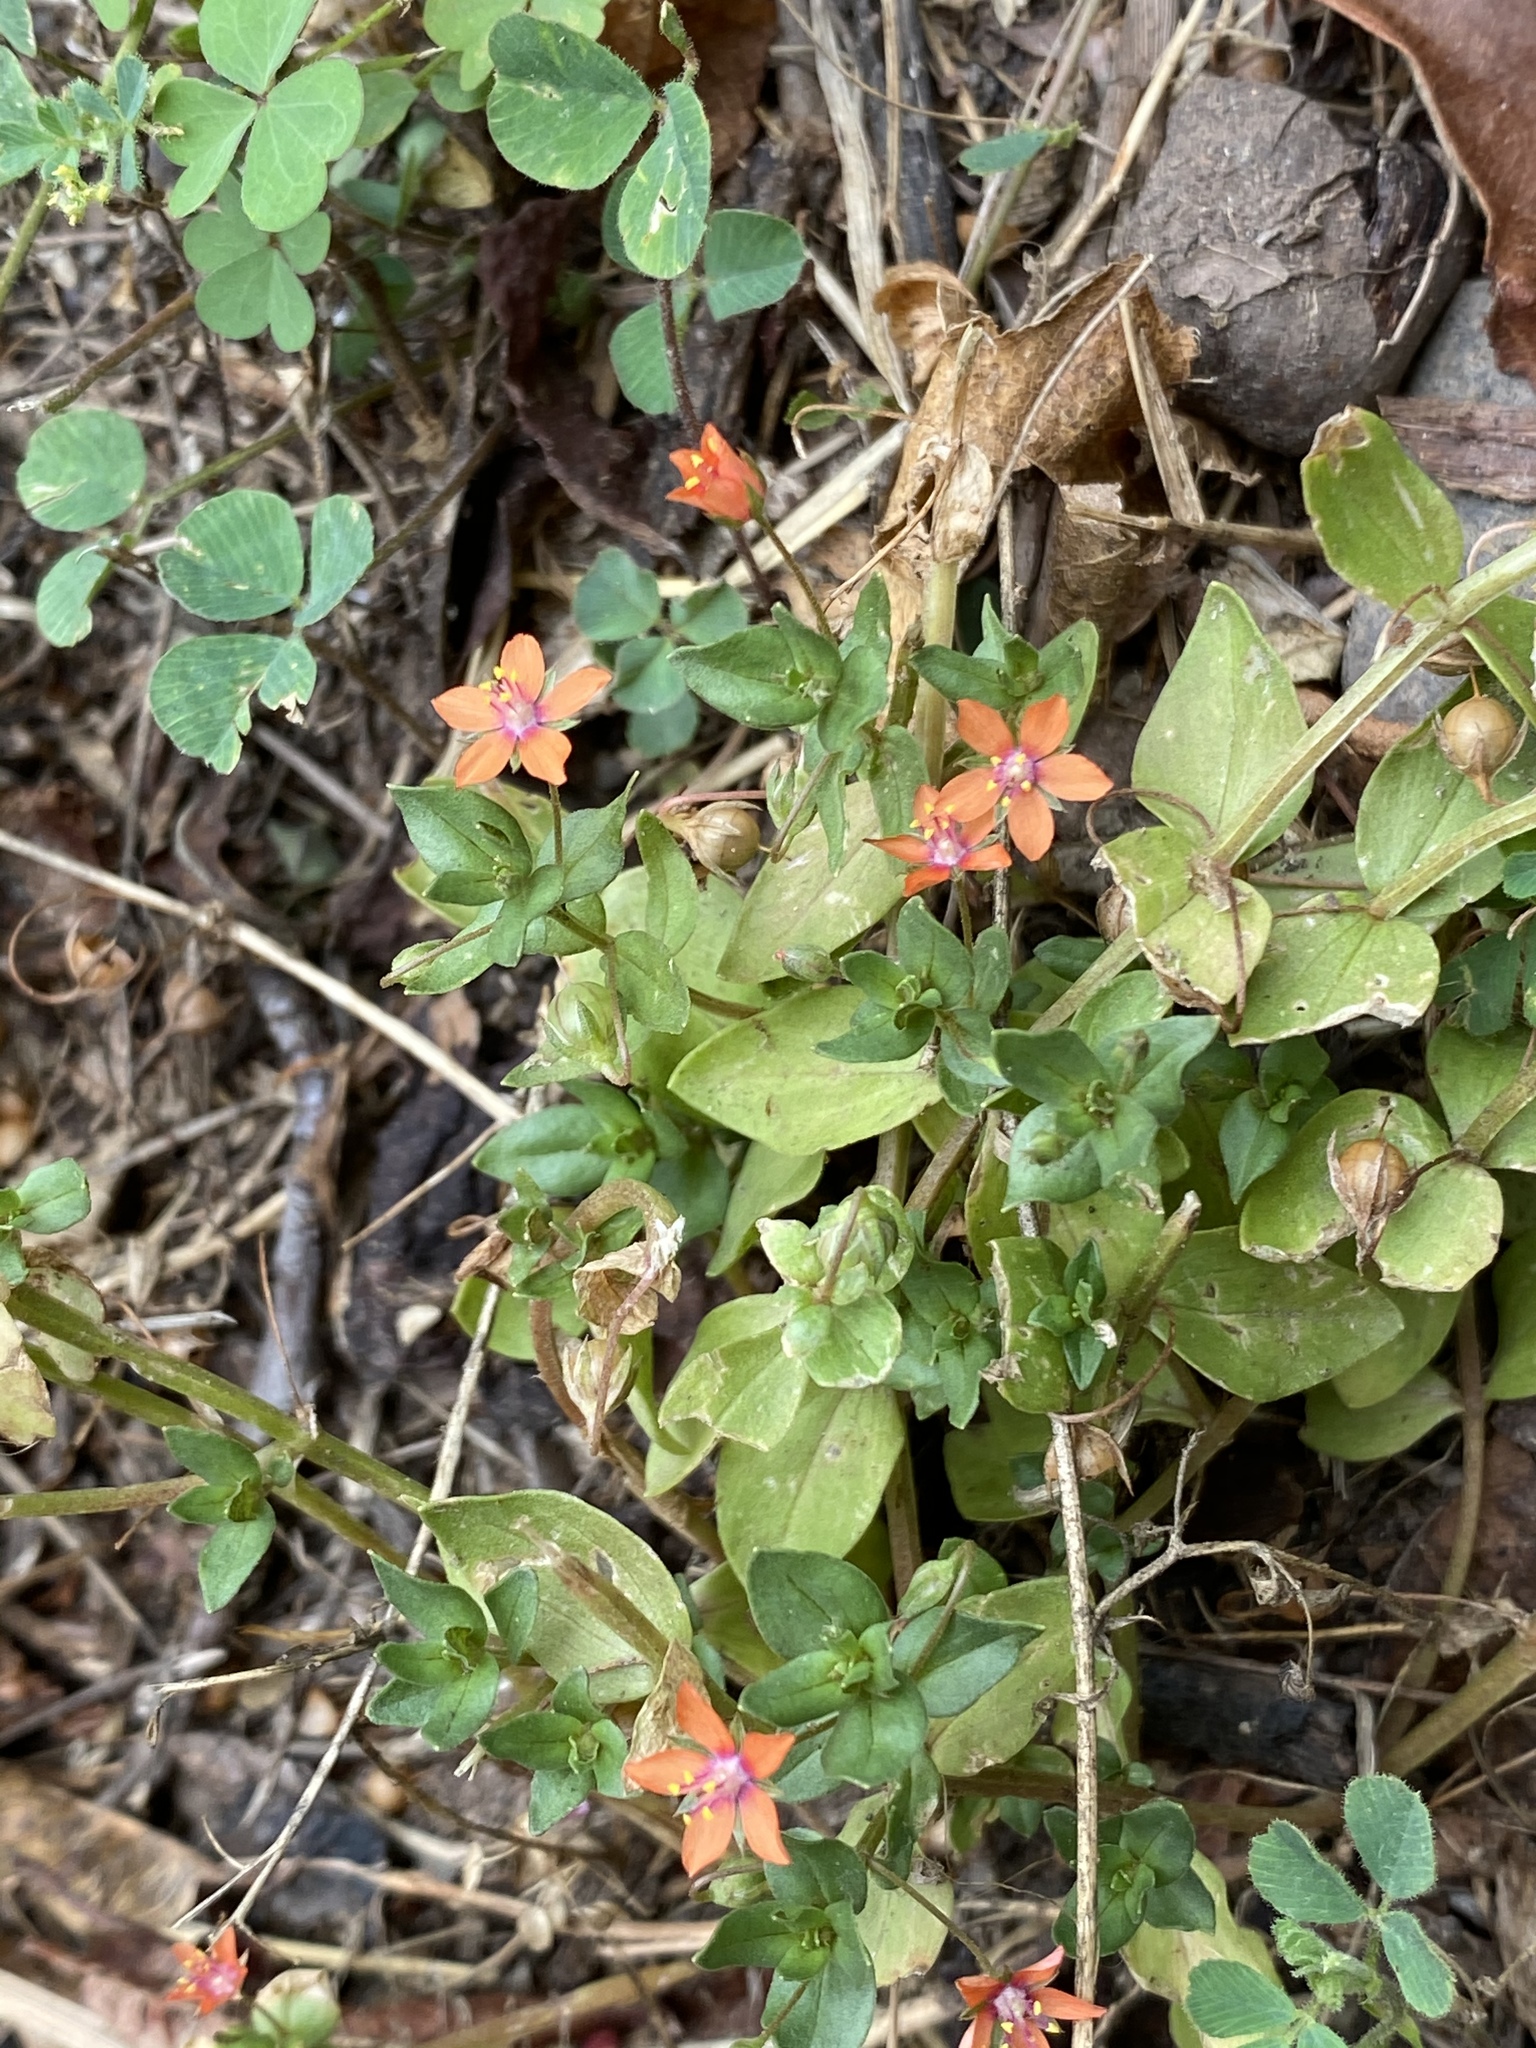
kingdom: Plantae
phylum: Tracheophyta
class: Magnoliopsida
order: Ericales
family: Primulaceae
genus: Lysimachia
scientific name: Lysimachia arvensis
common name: Scarlet pimpernel
